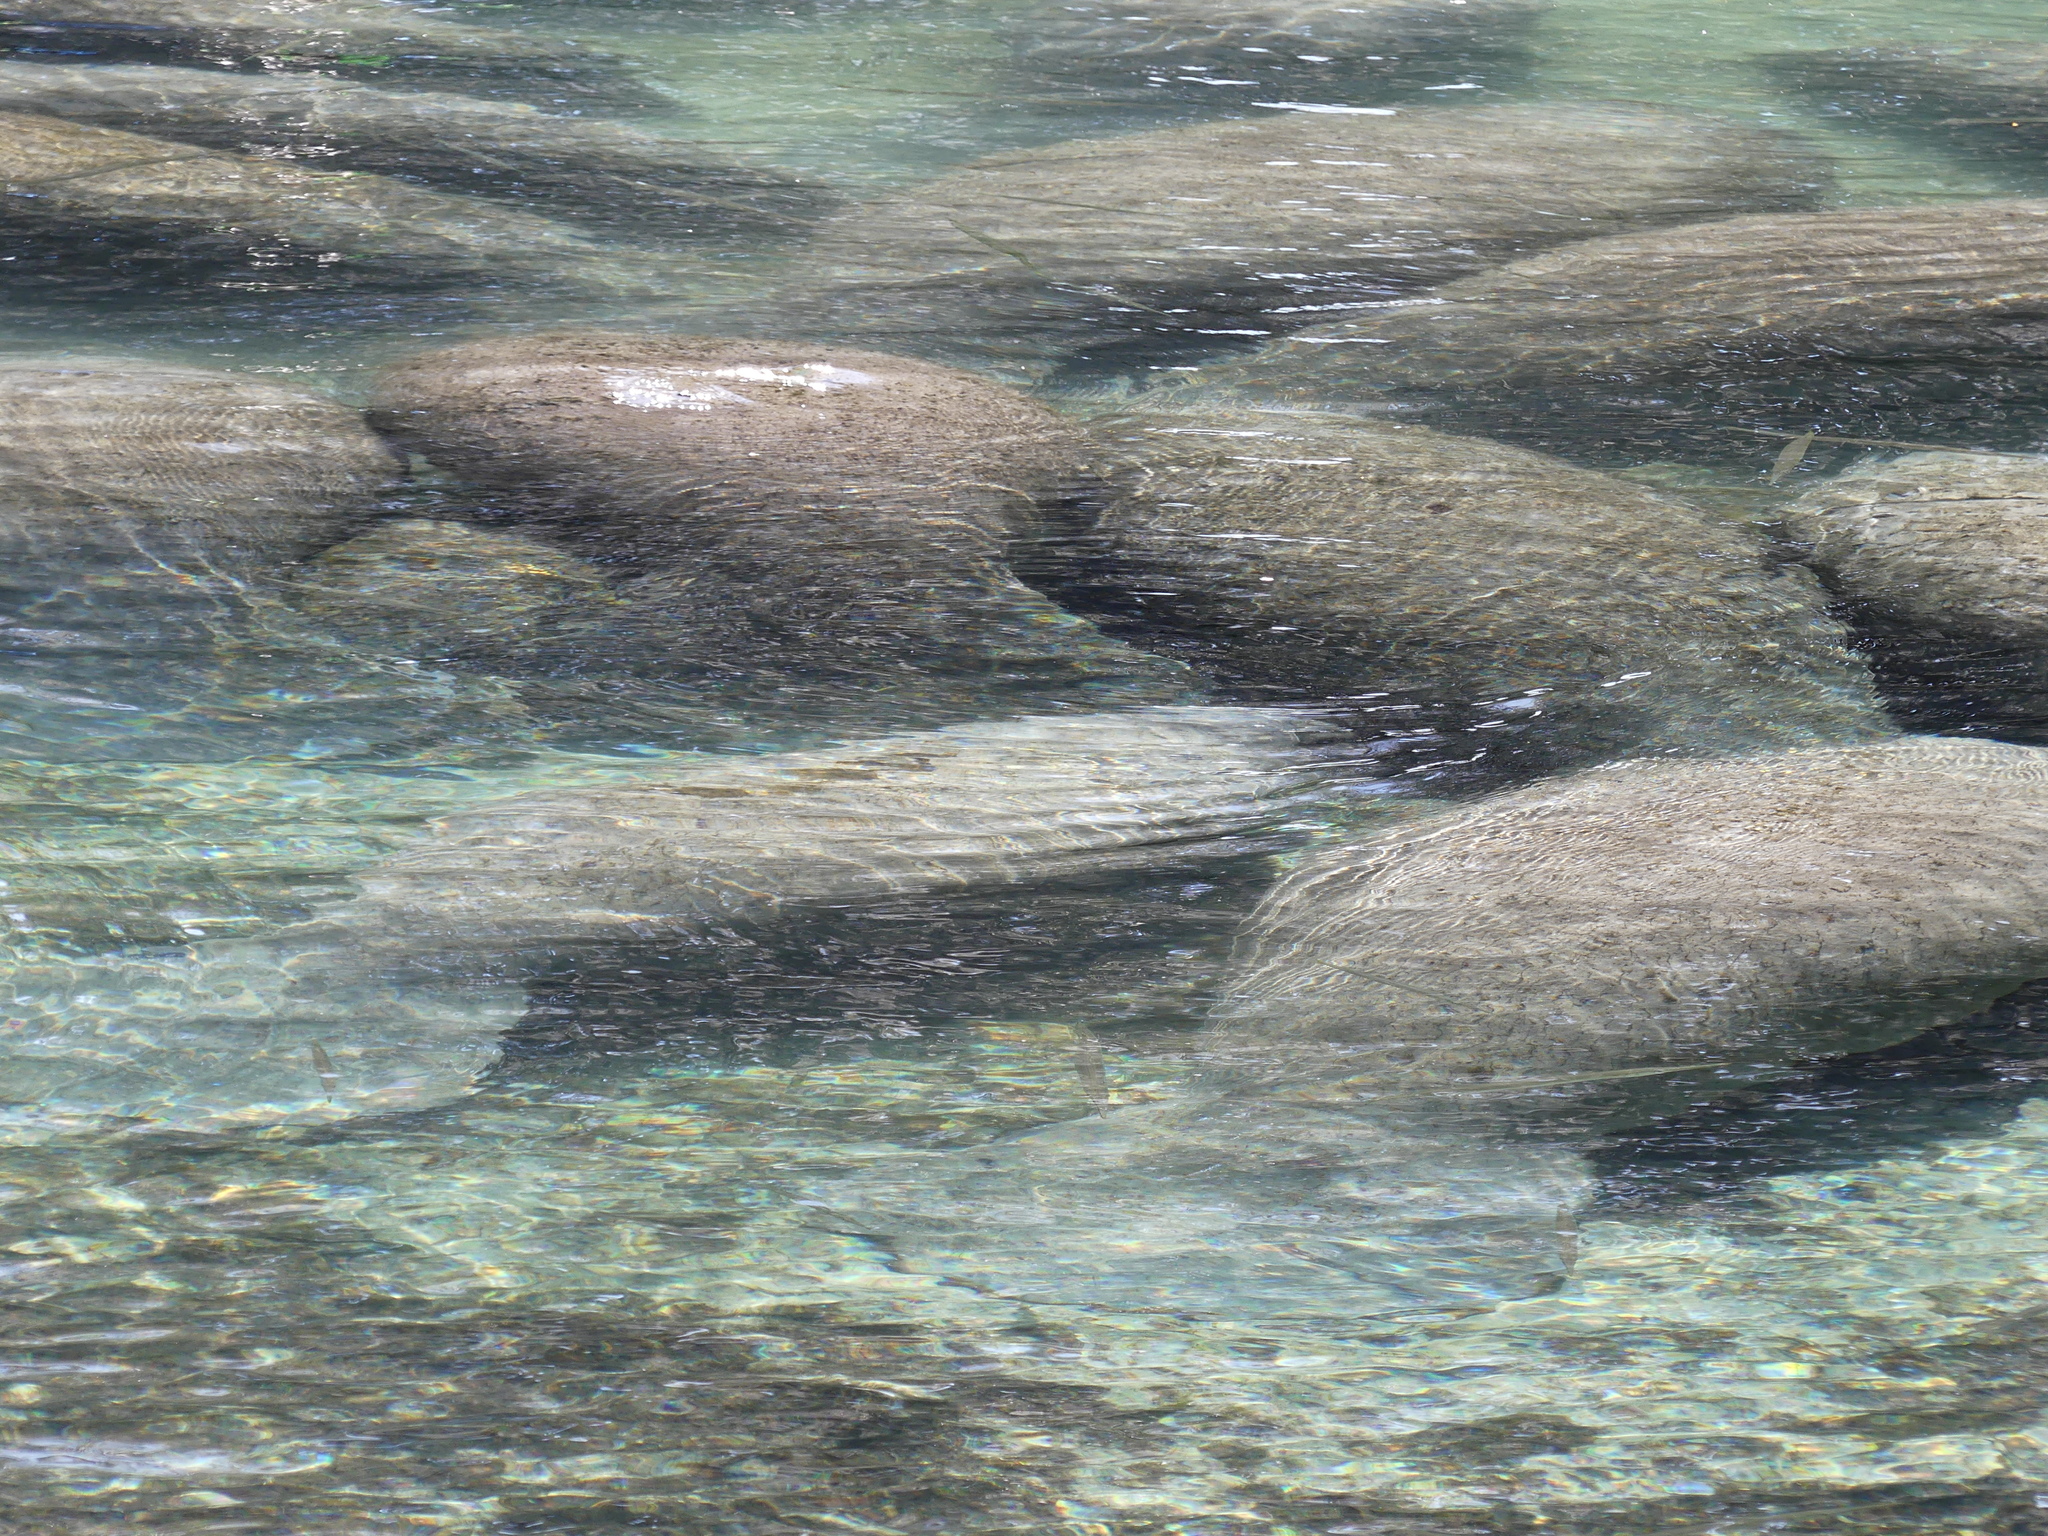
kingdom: Animalia
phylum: Chordata
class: Mammalia
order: Sirenia
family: Trichechidae
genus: Trichechus
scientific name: Trichechus manatus
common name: West indian manatee
